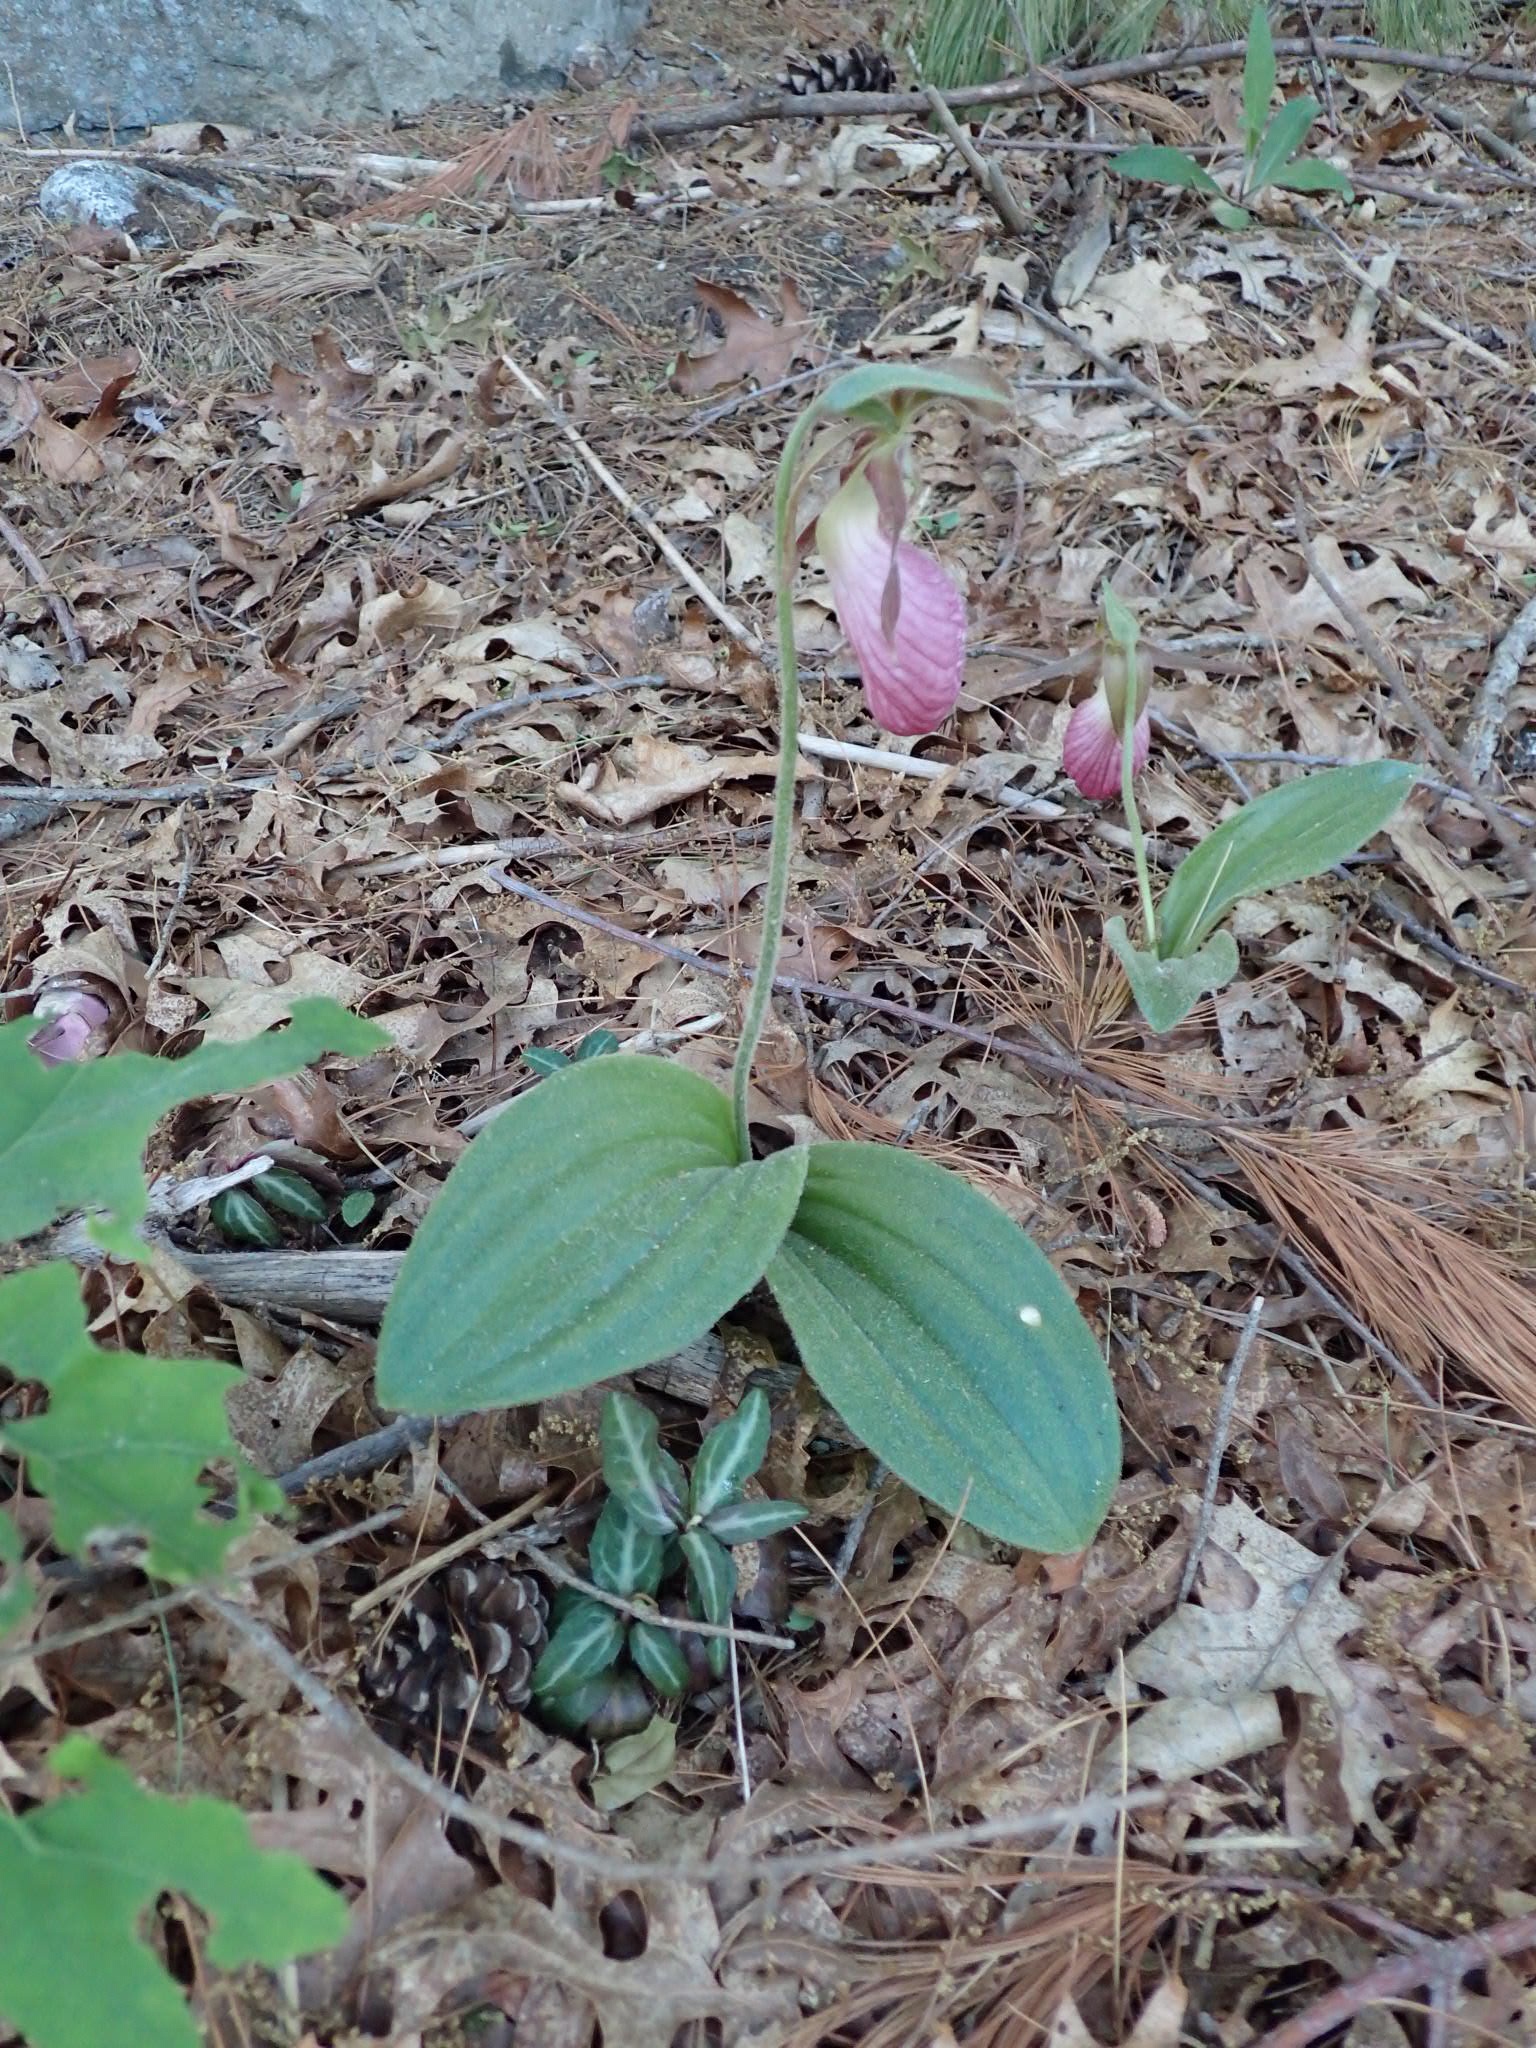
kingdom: Plantae
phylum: Tracheophyta
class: Liliopsida
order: Asparagales
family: Orchidaceae
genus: Cypripedium
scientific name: Cypripedium acaule
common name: Pink lady's-slipper
